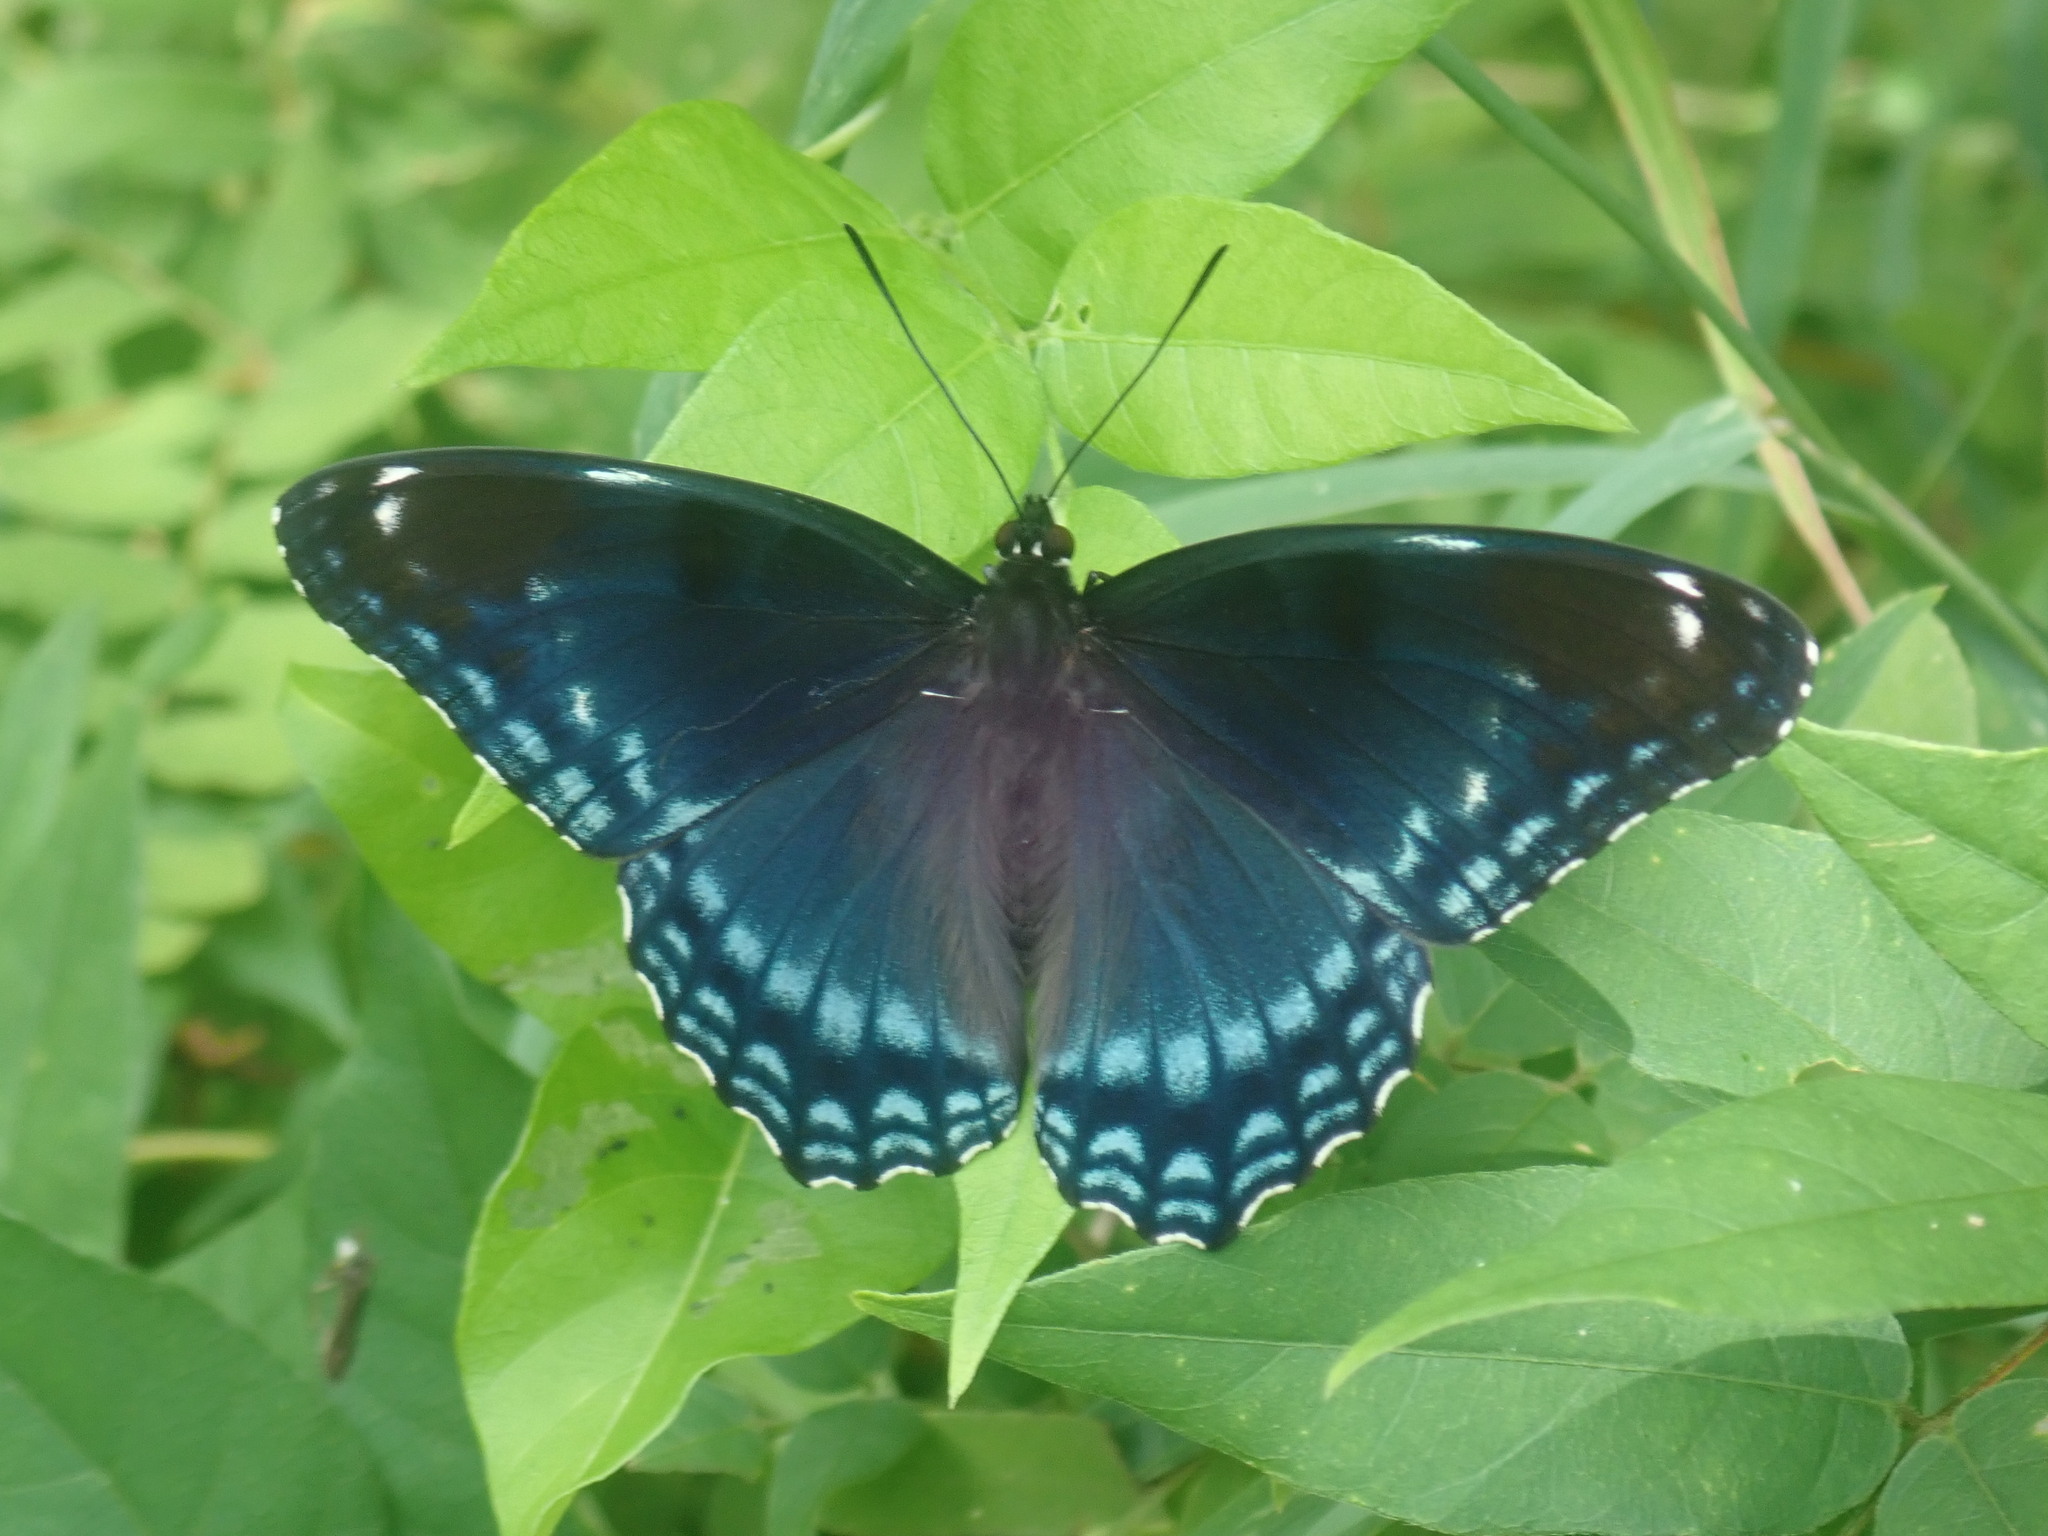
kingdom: Animalia
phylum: Arthropoda
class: Insecta
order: Lepidoptera
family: Nymphalidae
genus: Limenitis
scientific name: Limenitis arthemis
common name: Red-spotted admiral
